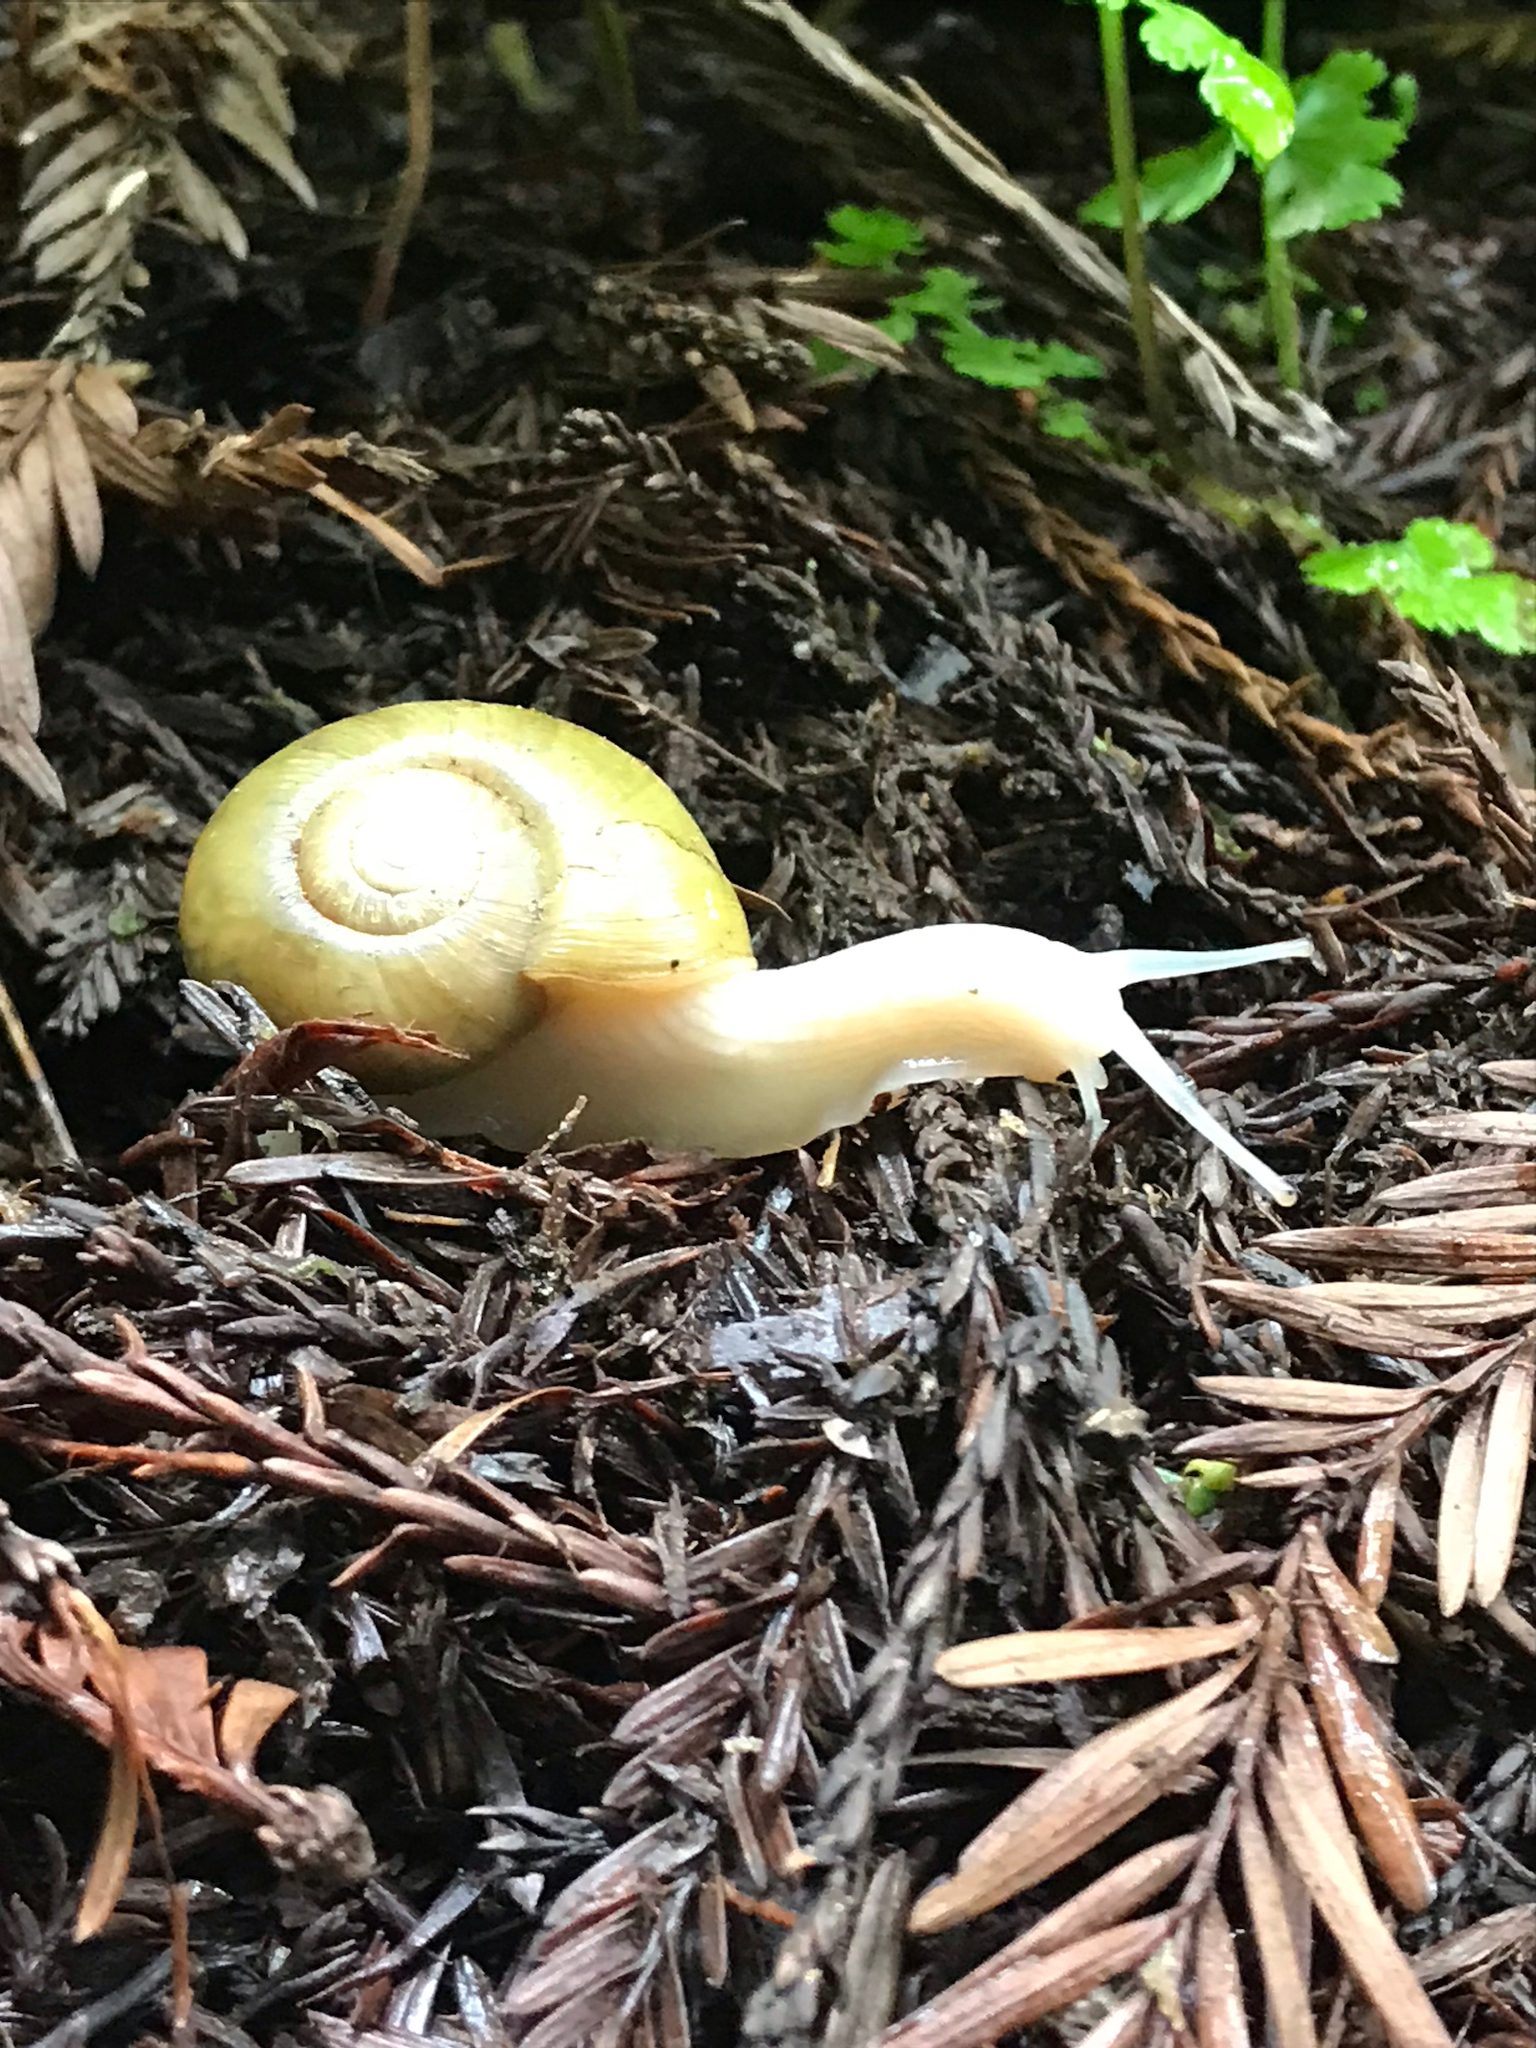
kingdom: Animalia
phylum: Mollusca
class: Gastropoda
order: Stylommatophora
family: Haplotrematidae
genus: Haplotrema
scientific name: Haplotrema vancouverense
